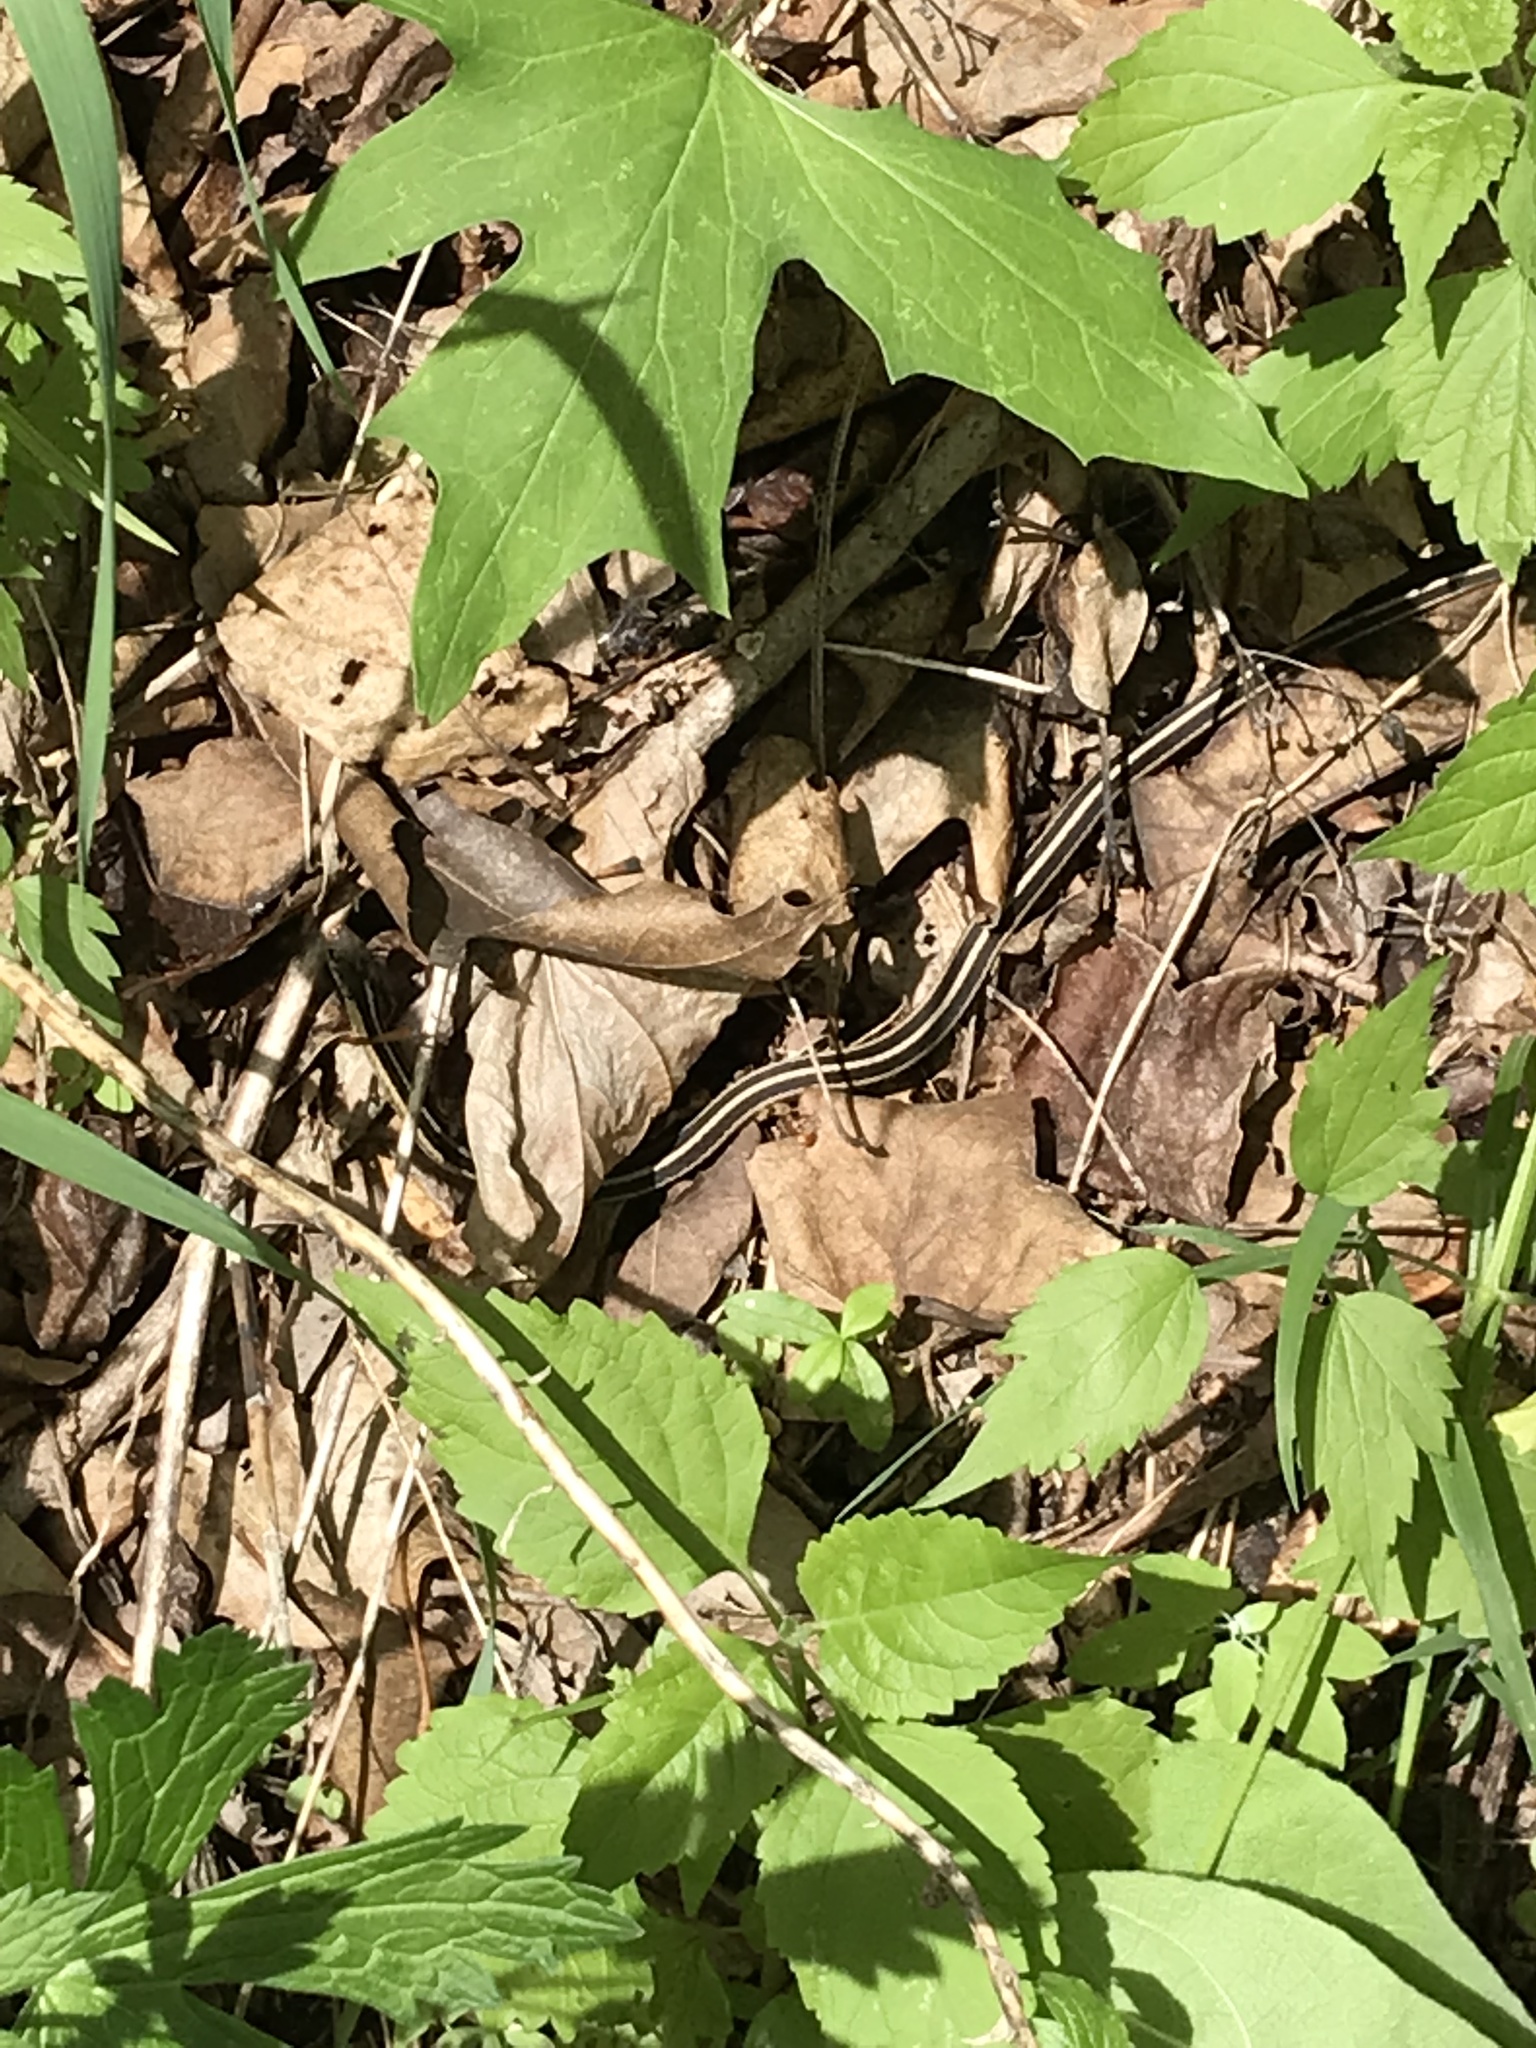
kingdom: Animalia
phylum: Chordata
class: Squamata
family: Colubridae
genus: Thamnophis
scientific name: Thamnophis sirtalis
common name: Common garter snake
